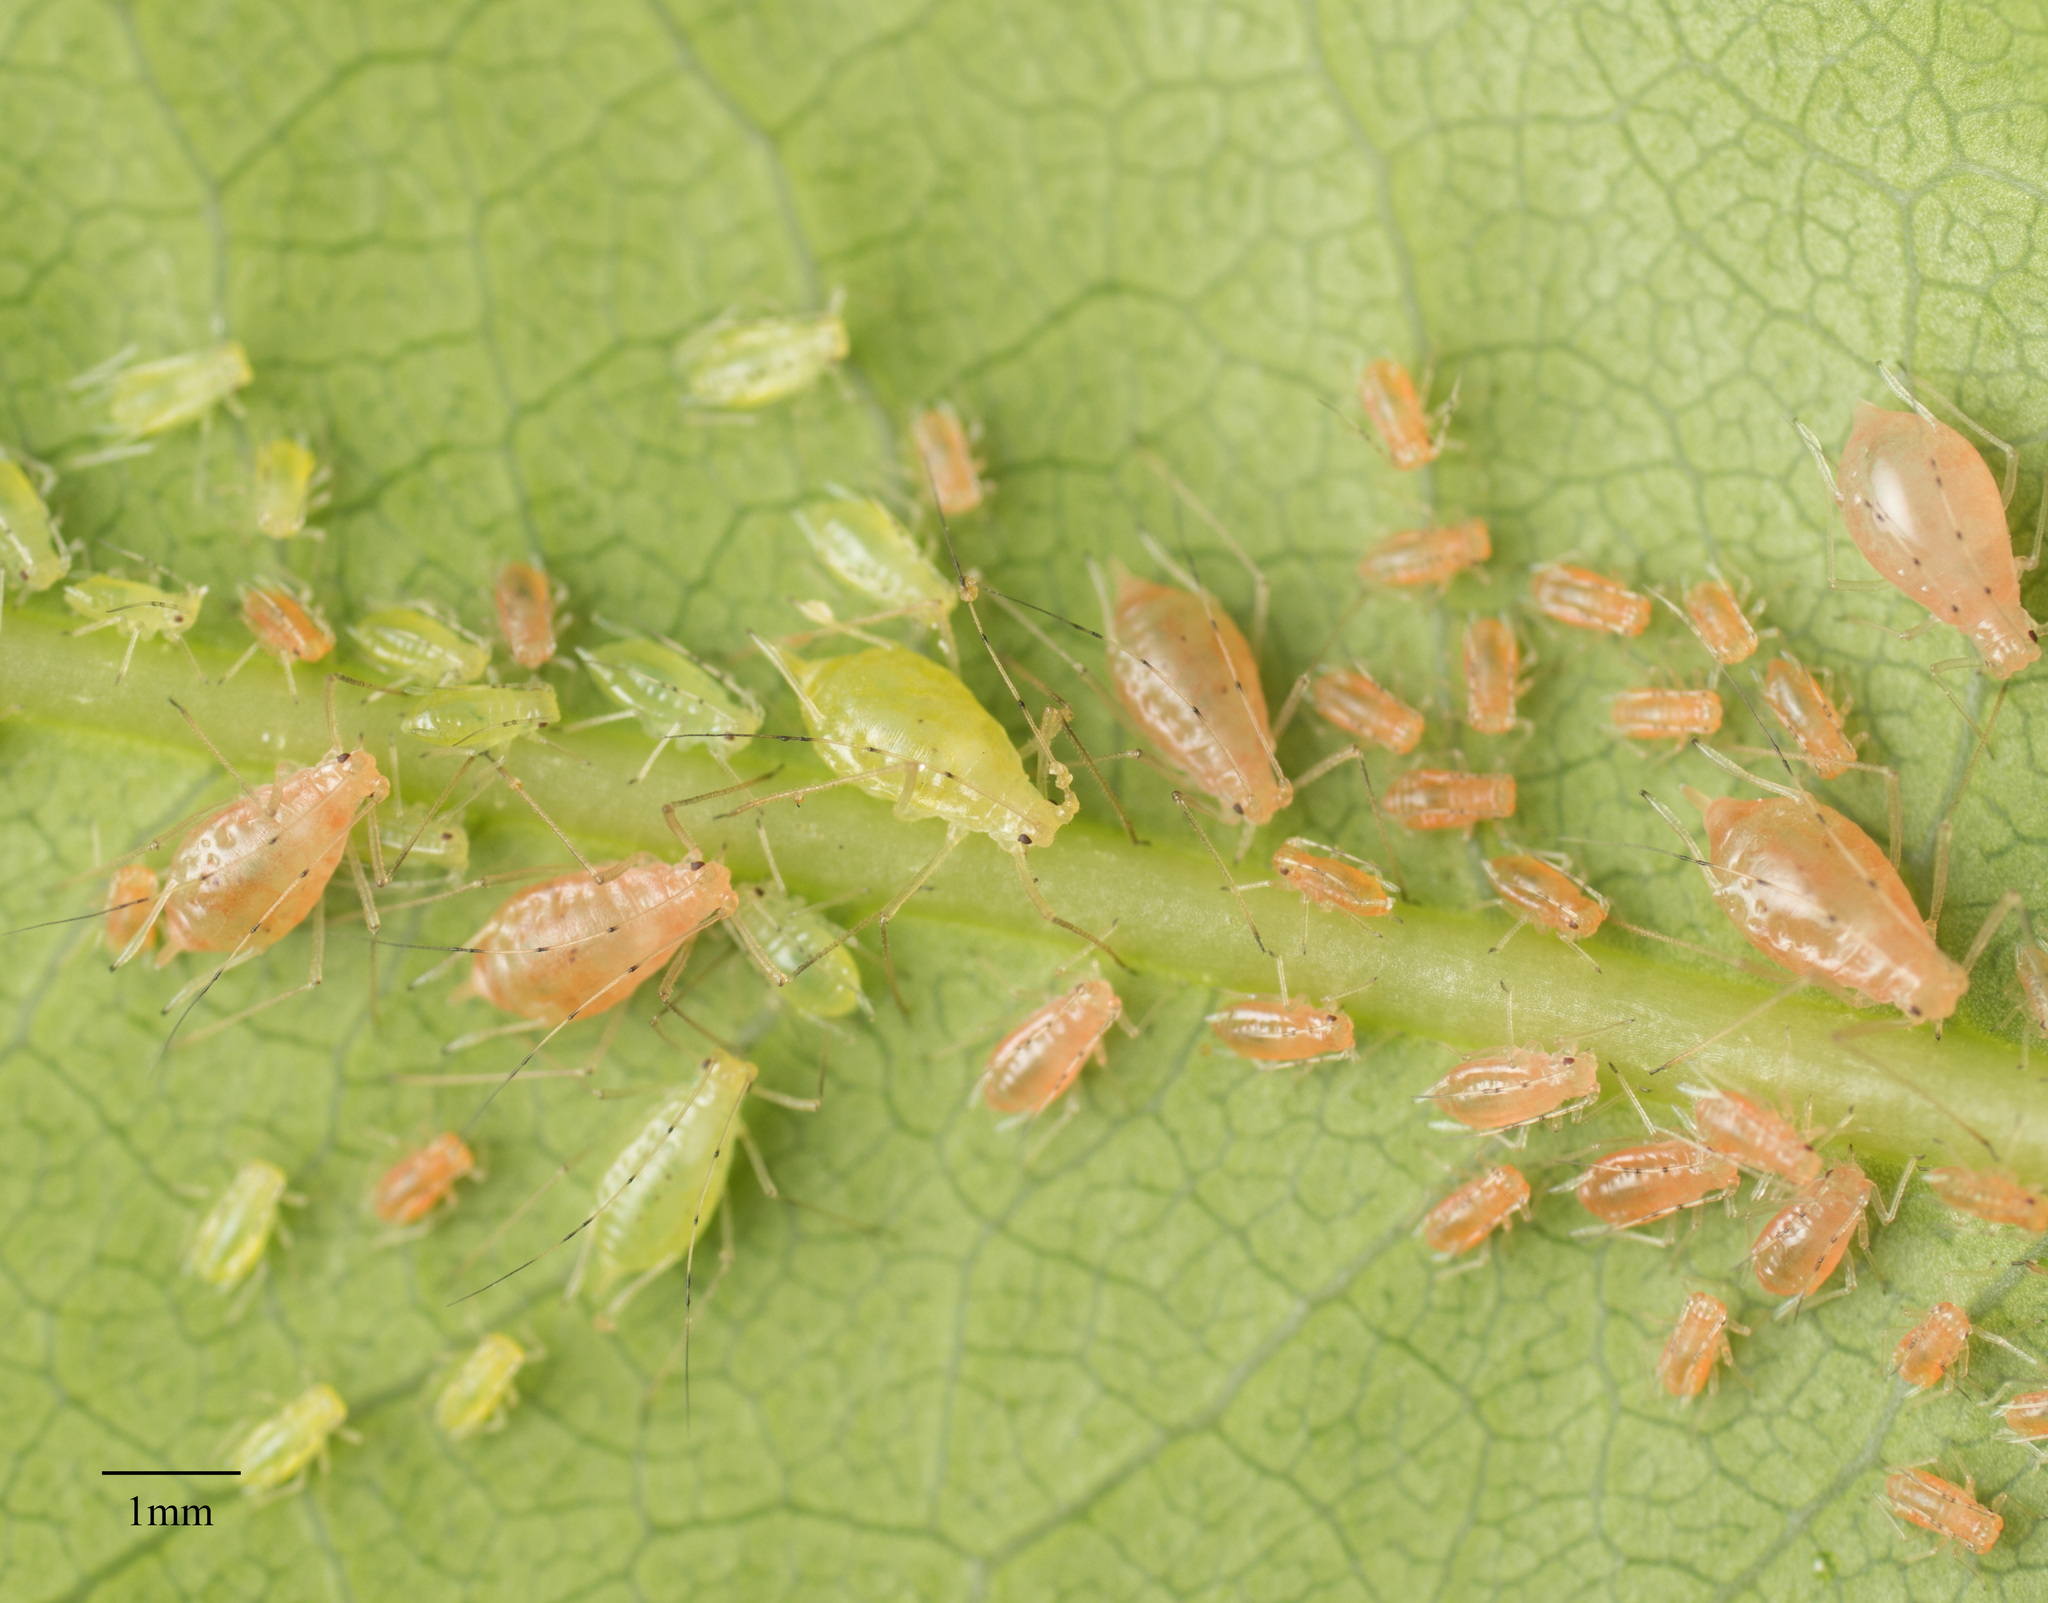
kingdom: Animalia
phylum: Arthropoda
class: Insecta
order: Hemiptera
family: Aphididae
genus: Wahlgreniella
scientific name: Wahlgreniella nervata
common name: Pale green aphid
